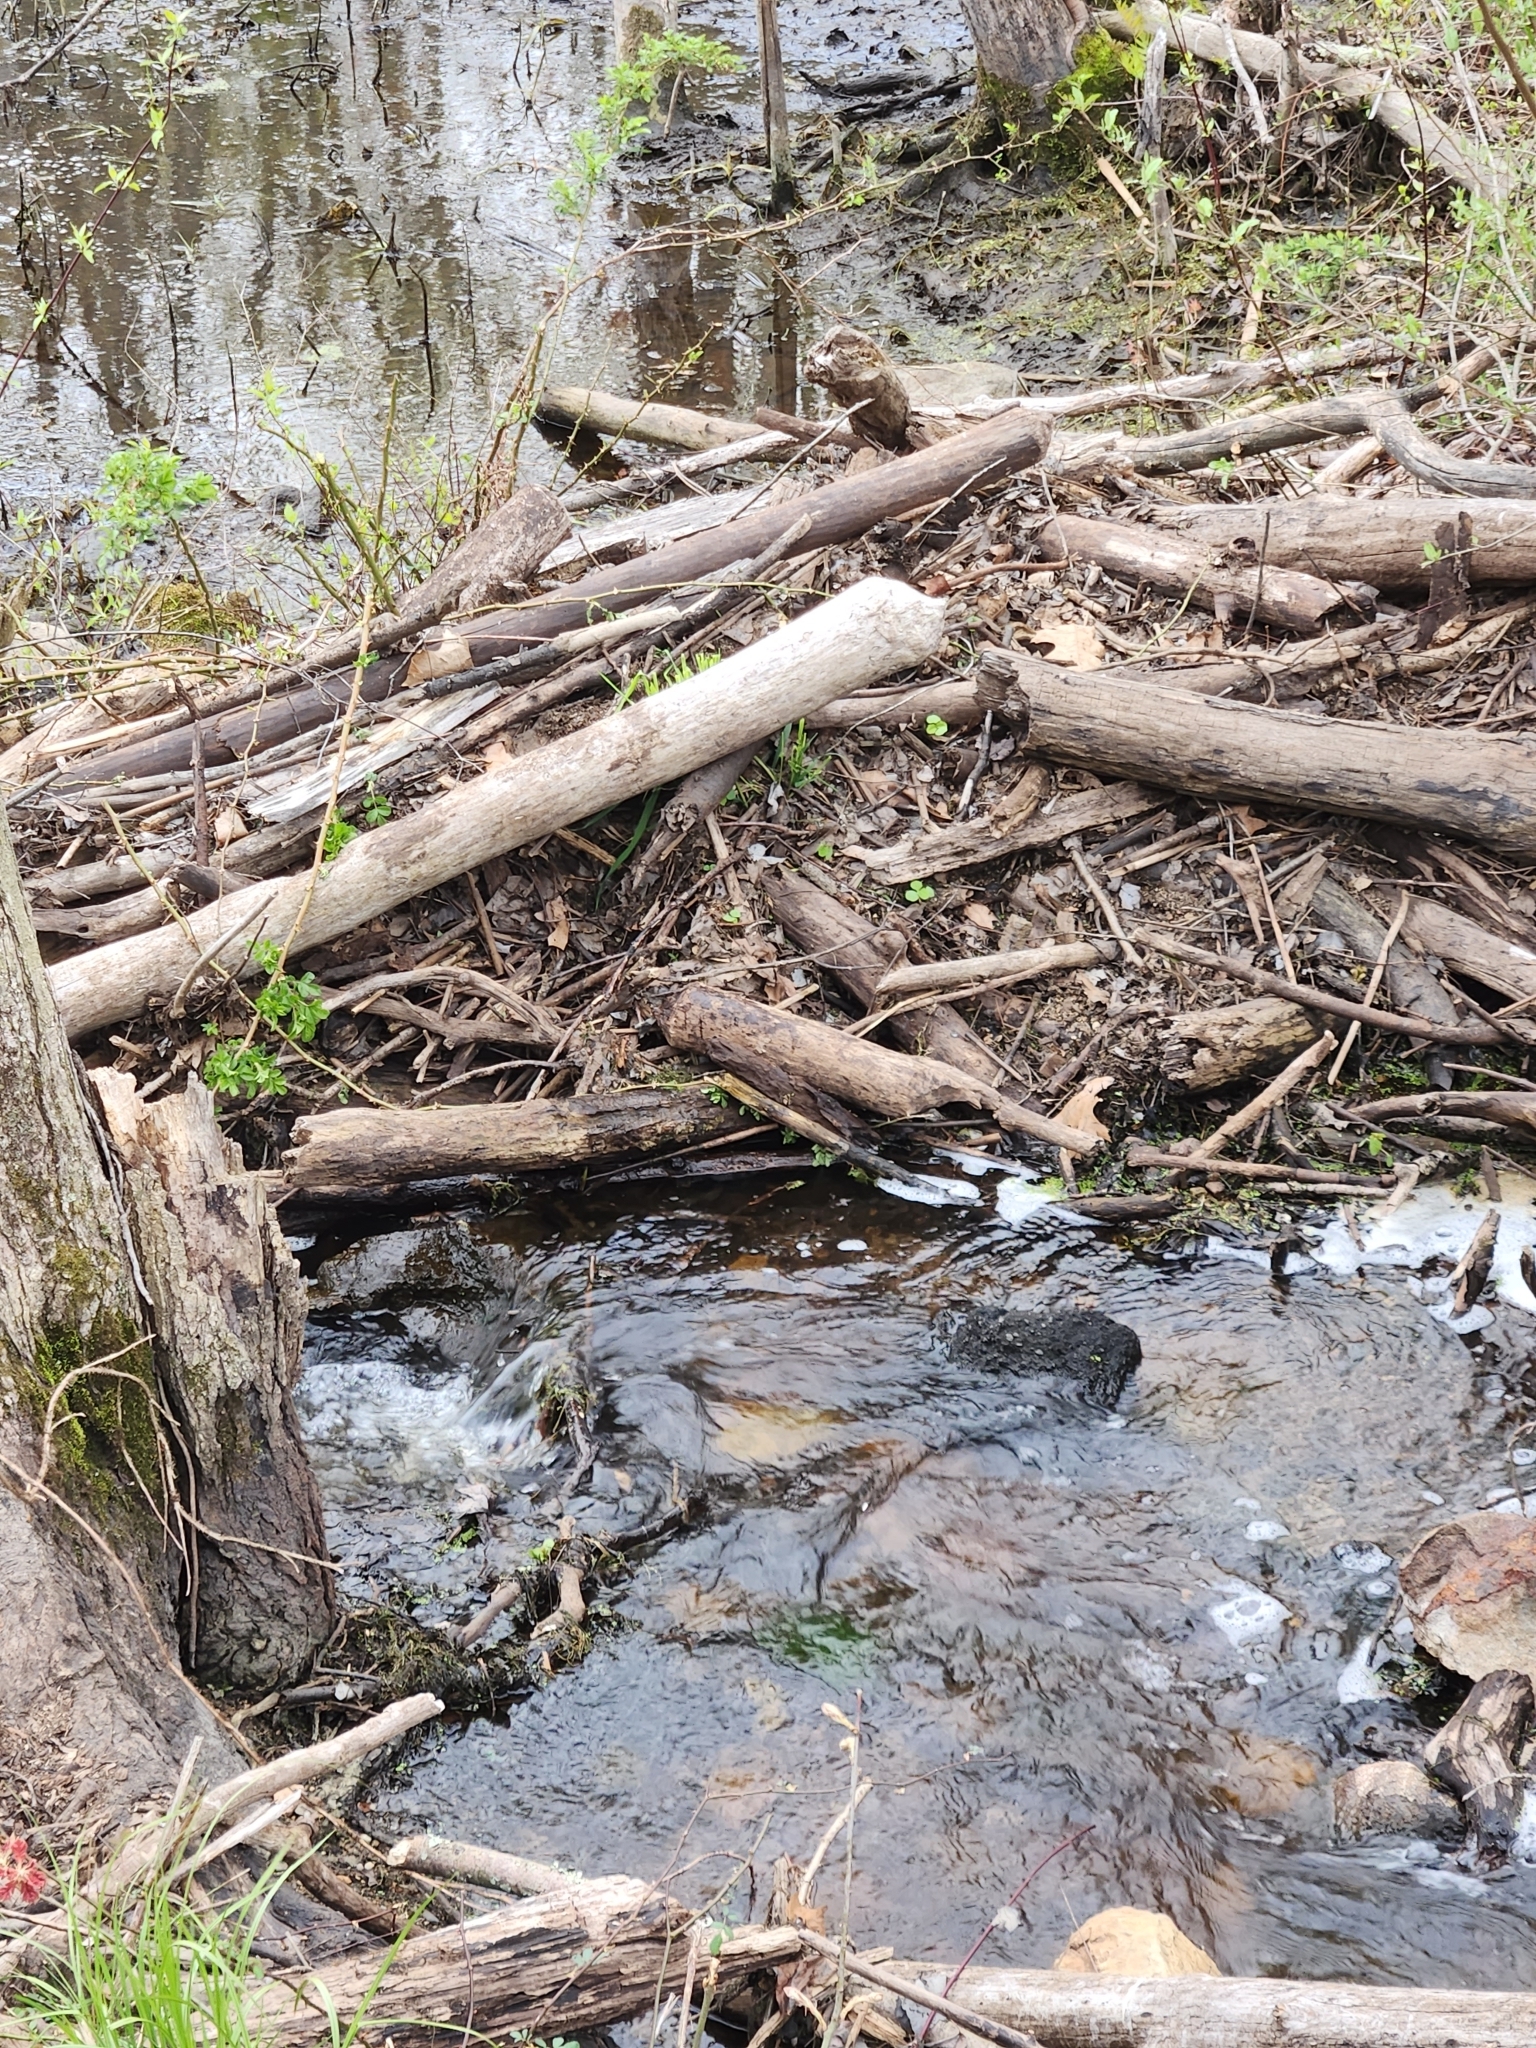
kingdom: Animalia
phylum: Chordata
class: Mammalia
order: Rodentia
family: Cricetidae
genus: Ondatra
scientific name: Ondatra zibethicus
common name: Muskrat
